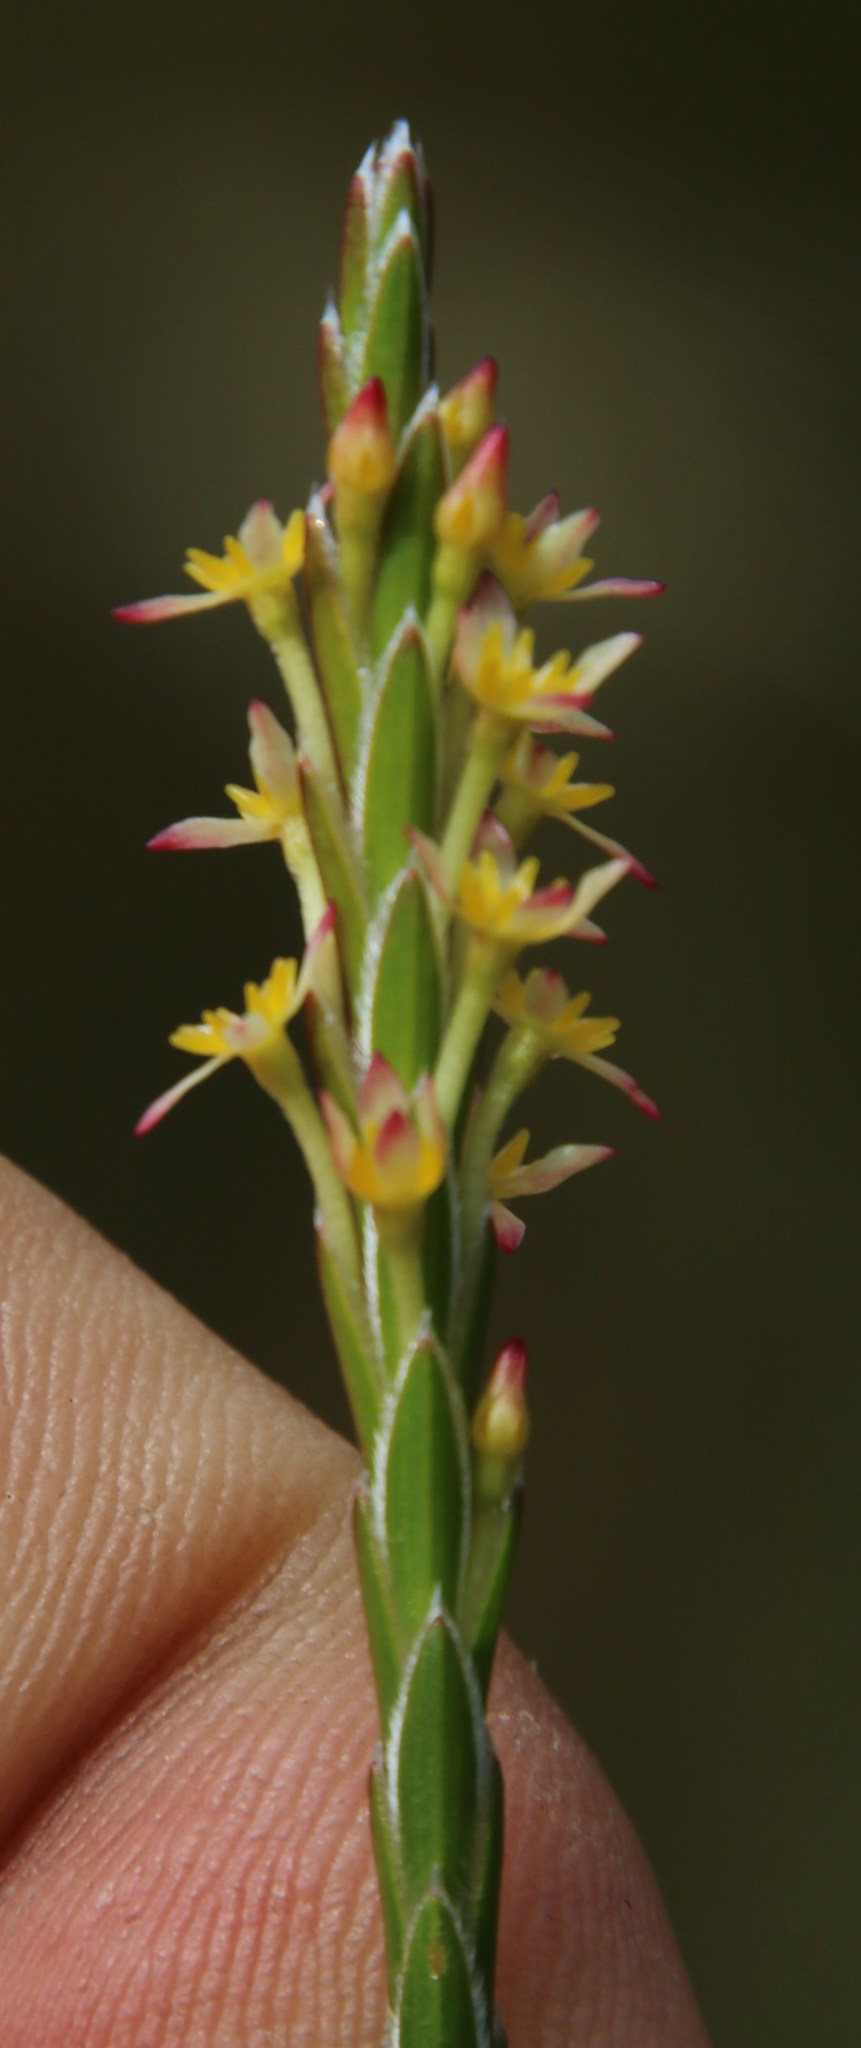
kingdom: Plantae
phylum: Tracheophyta
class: Magnoliopsida
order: Malvales
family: Thymelaeaceae
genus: Struthiola
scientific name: Struthiola ciliata
